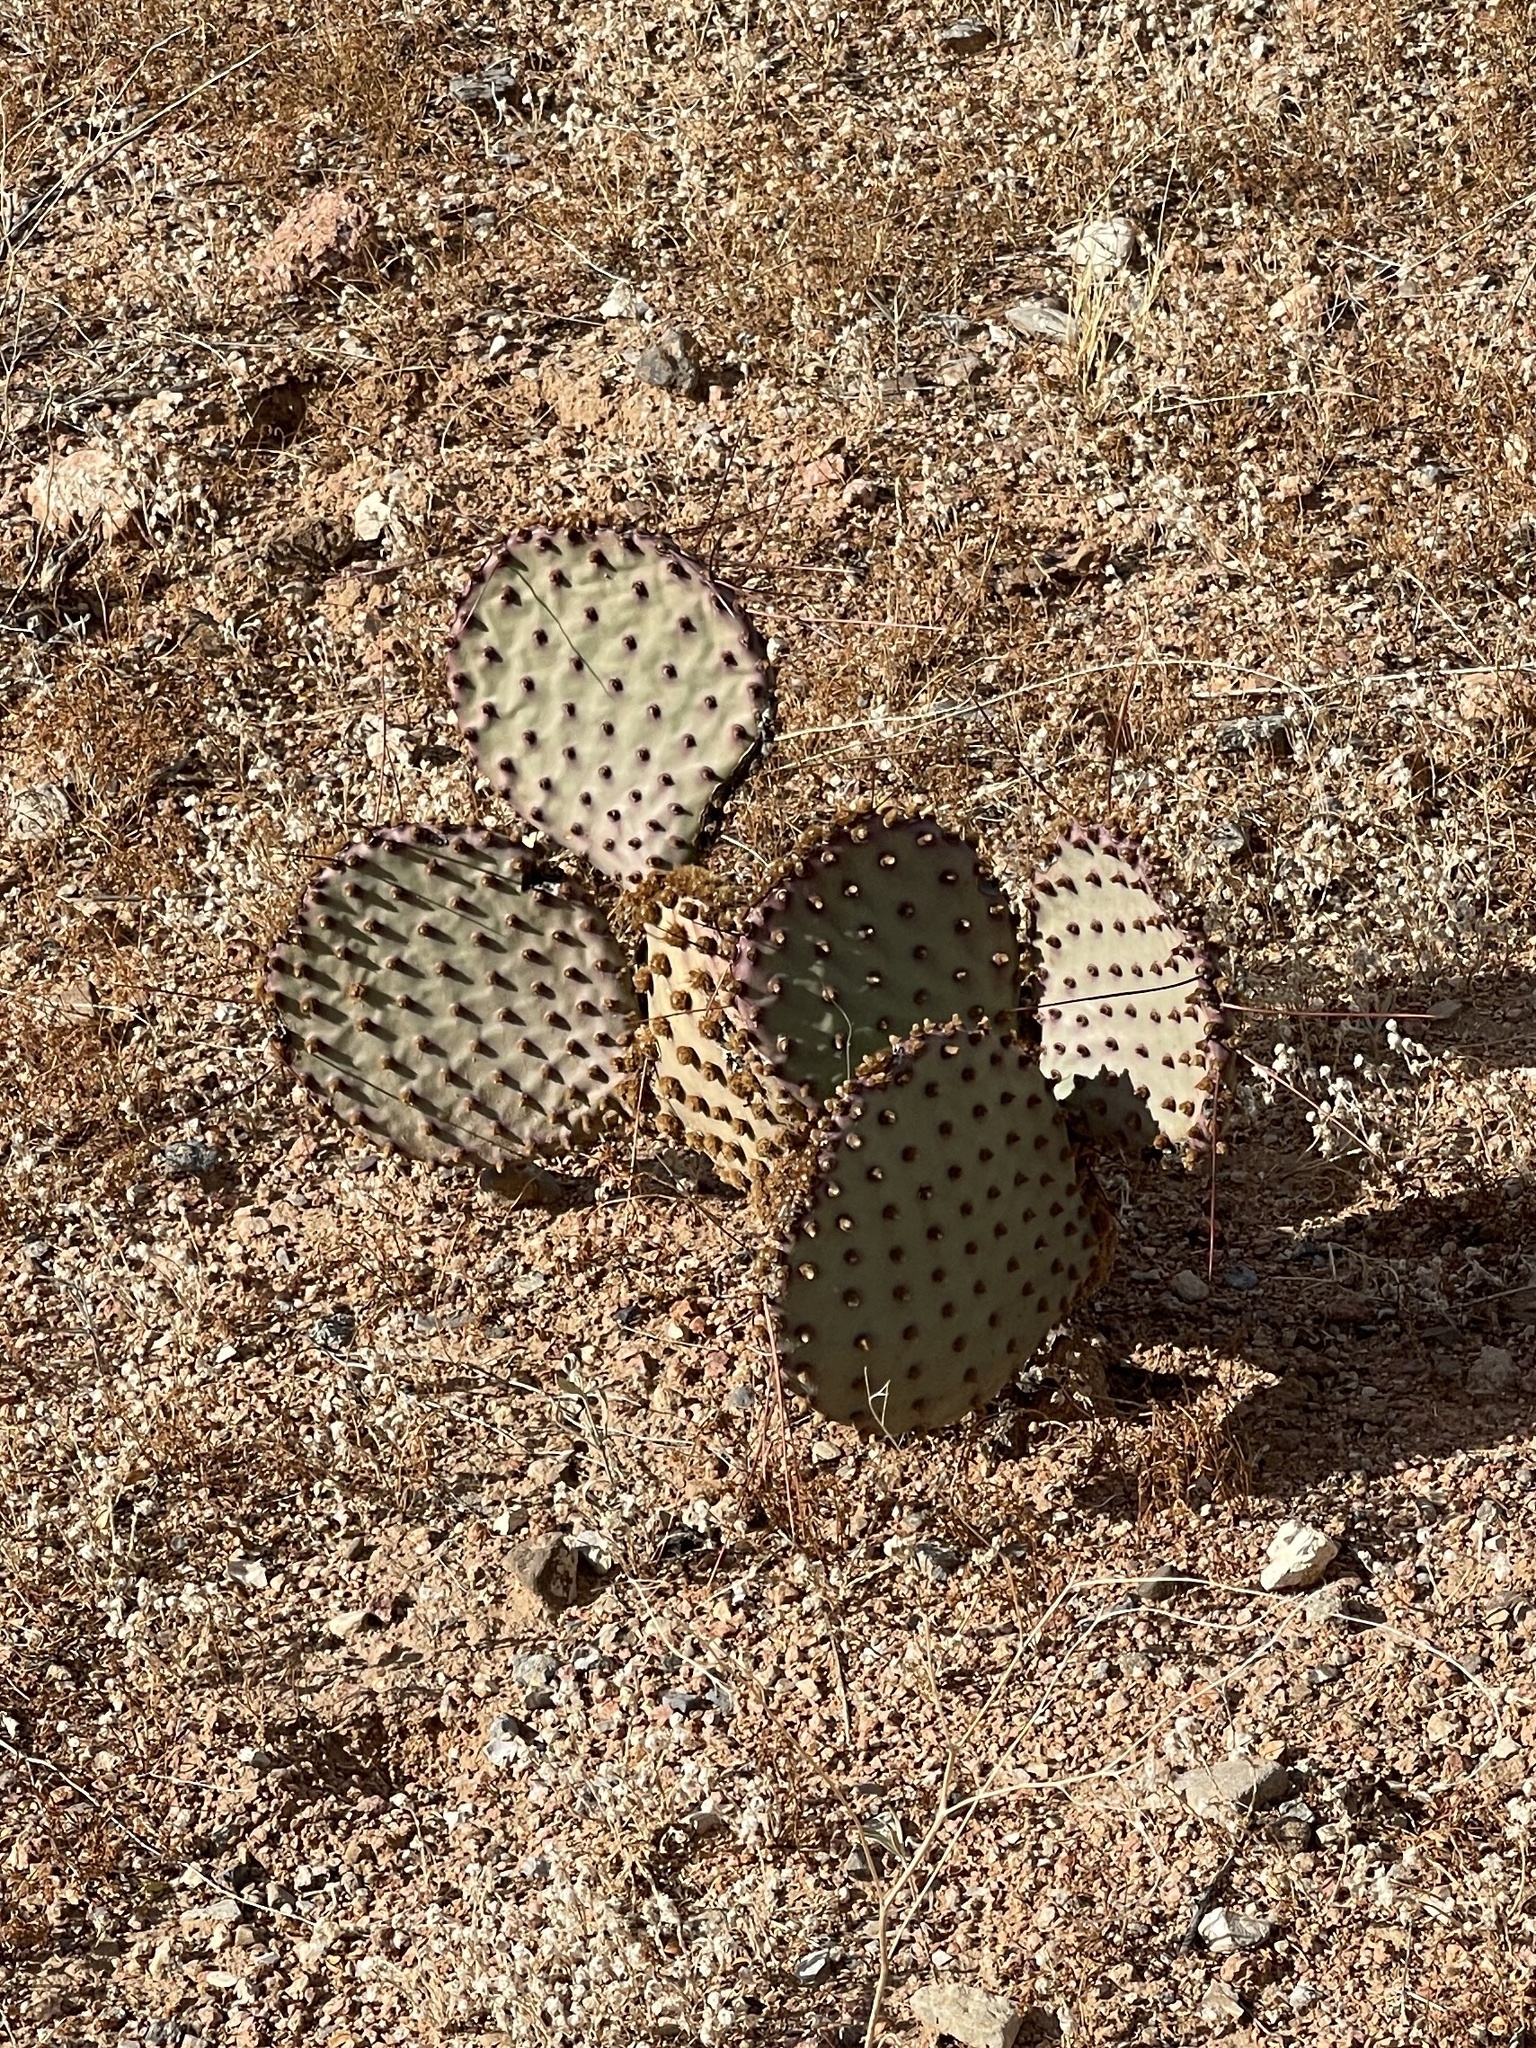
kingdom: Plantae
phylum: Tracheophyta
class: Magnoliopsida
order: Caryophyllales
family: Cactaceae
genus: Opuntia
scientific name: Opuntia macrocentra
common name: Purple prickly-pear
